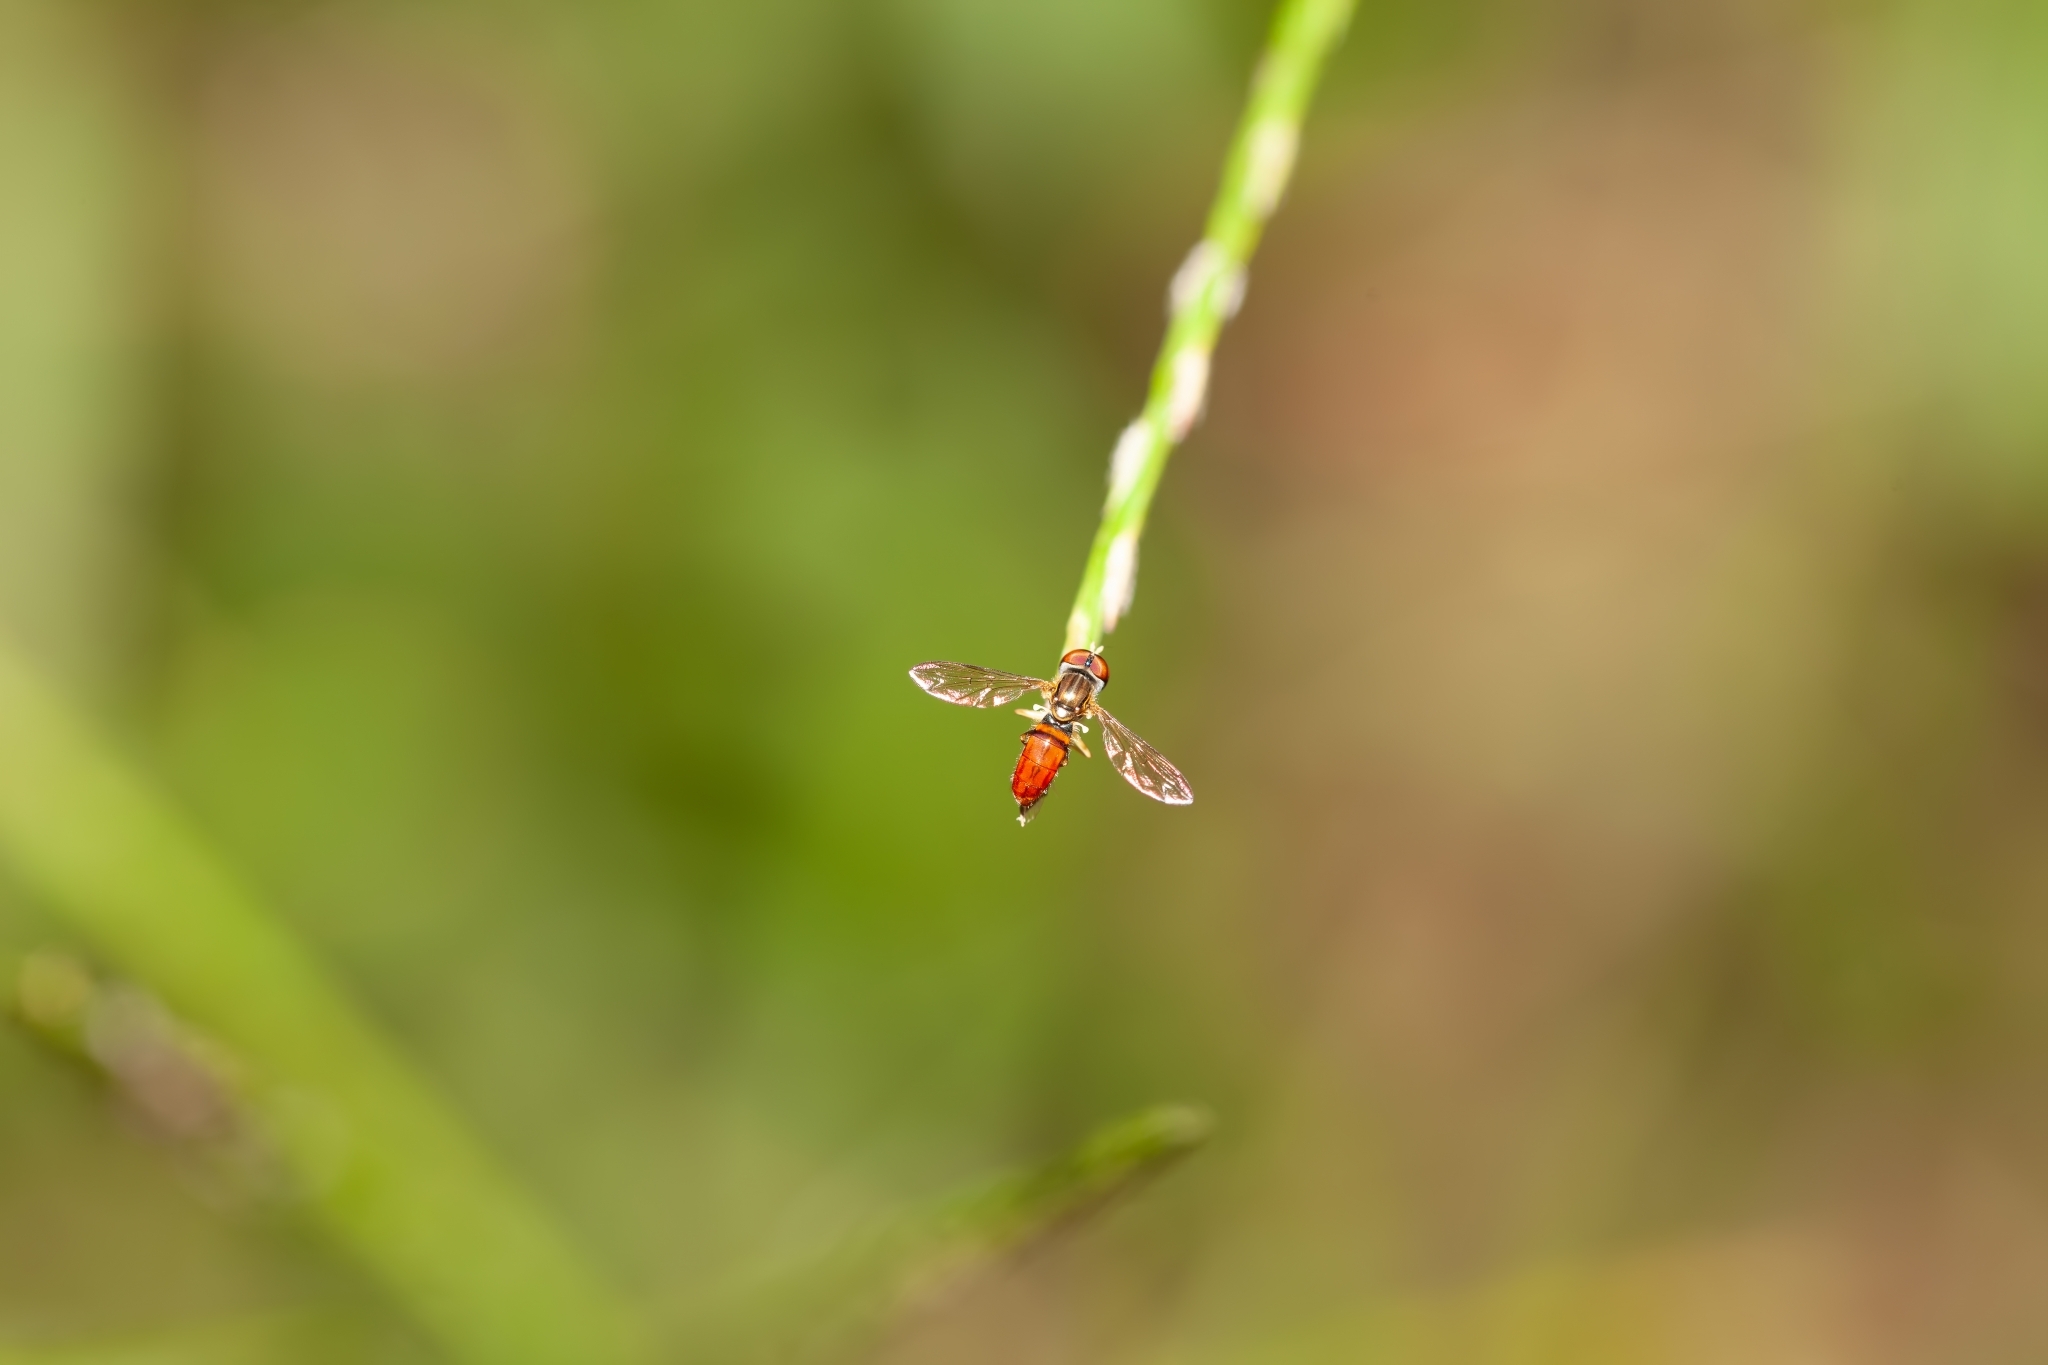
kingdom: Animalia
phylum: Arthropoda
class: Insecta
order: Diptera
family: Syrphidae
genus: Toxomerus
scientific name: Toxomerus boscii
